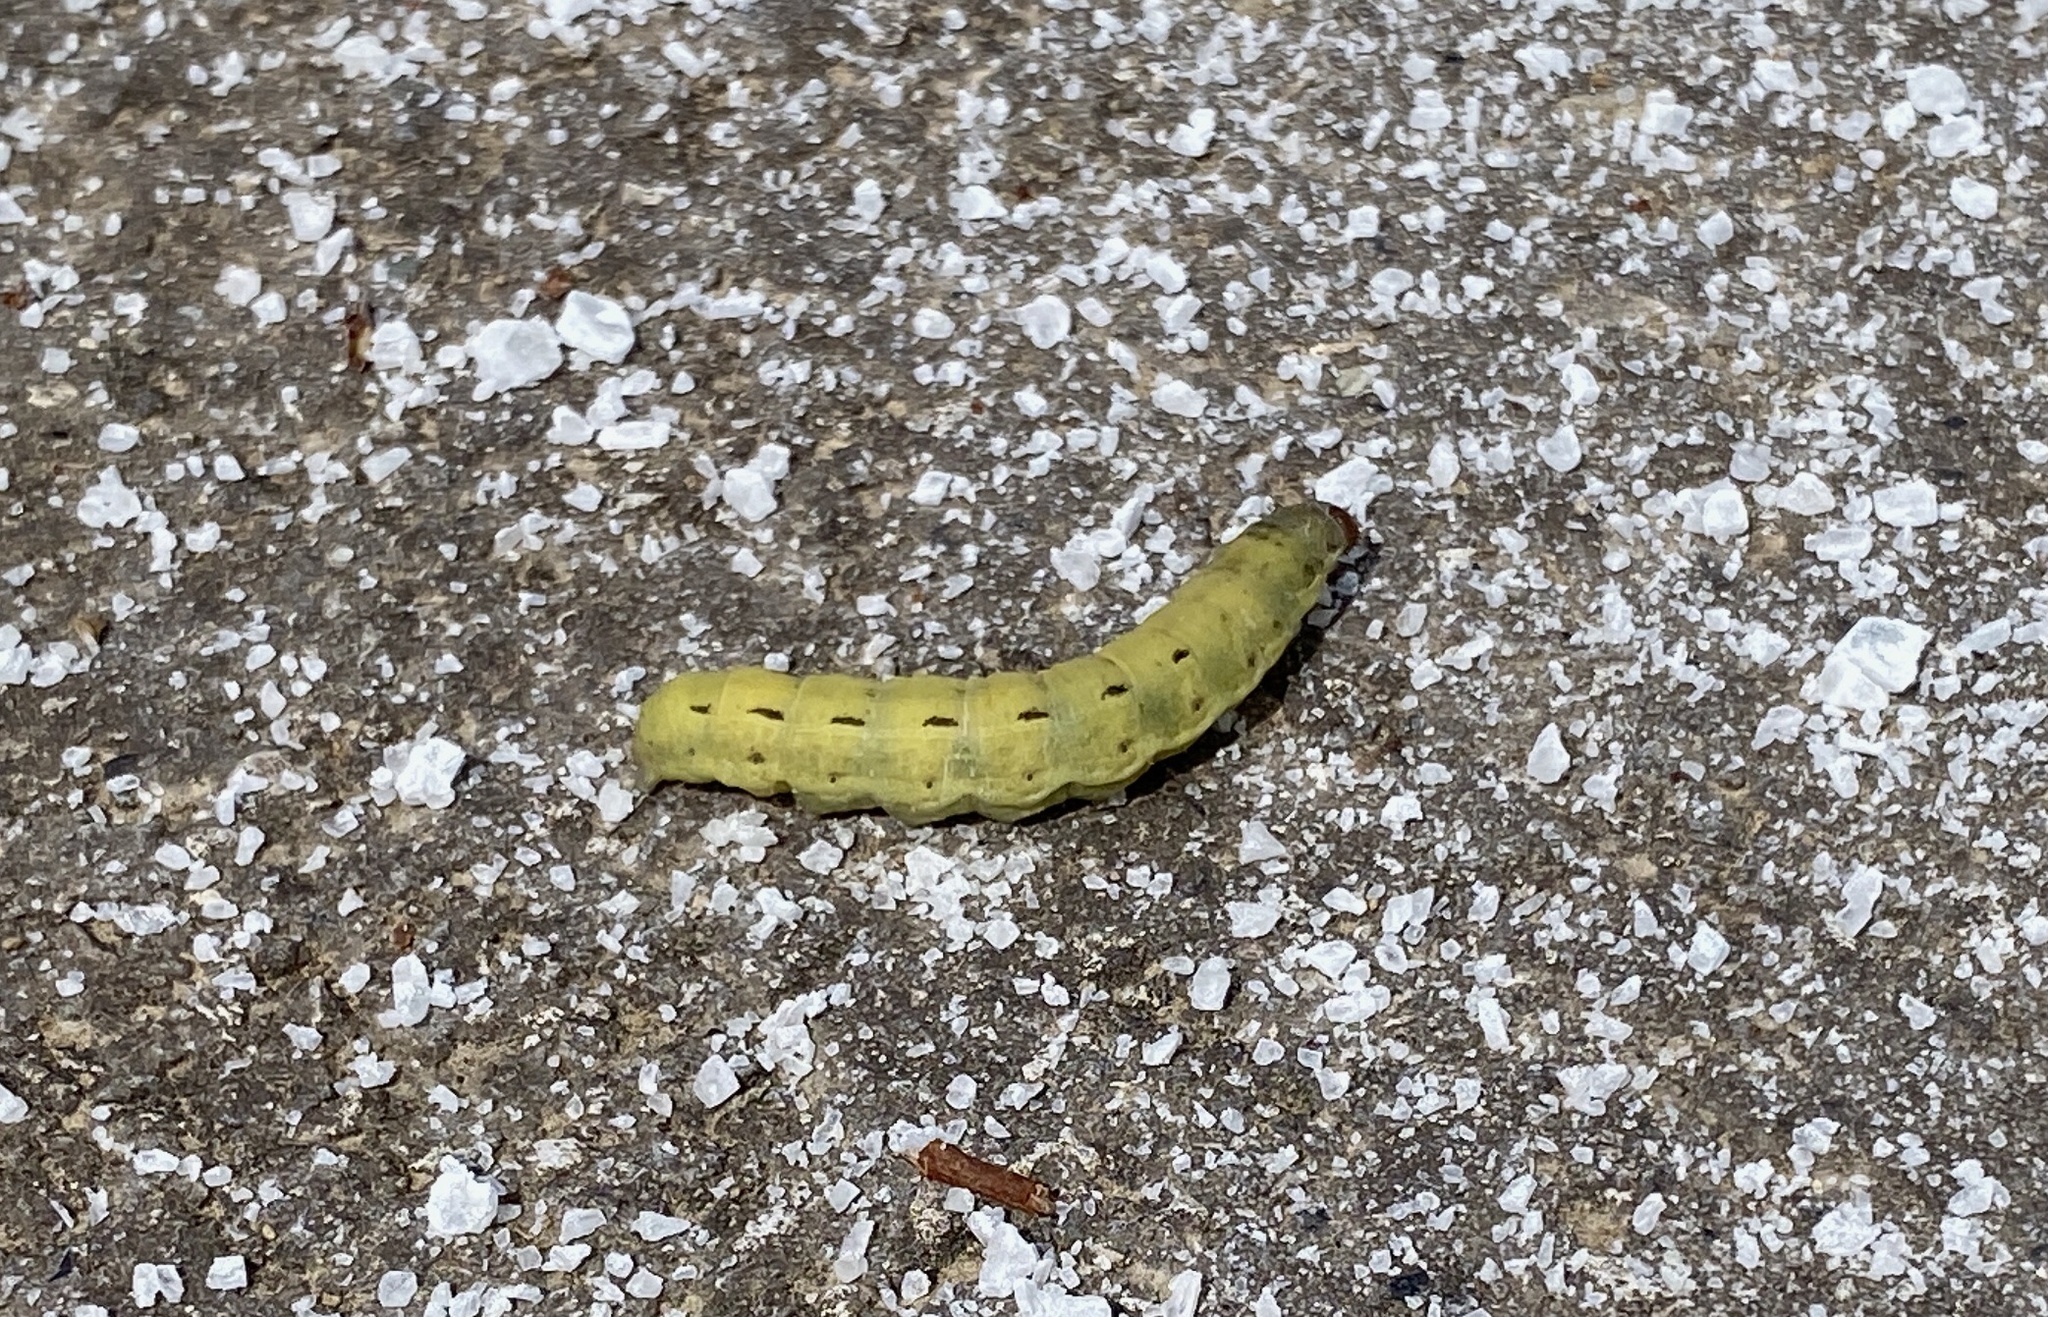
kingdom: Animalia
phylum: Arthropoda
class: Insecta
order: Lepidoptera
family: Noctuidae
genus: Noctua
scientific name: Noctua pronuba
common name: Large yellow underwing
